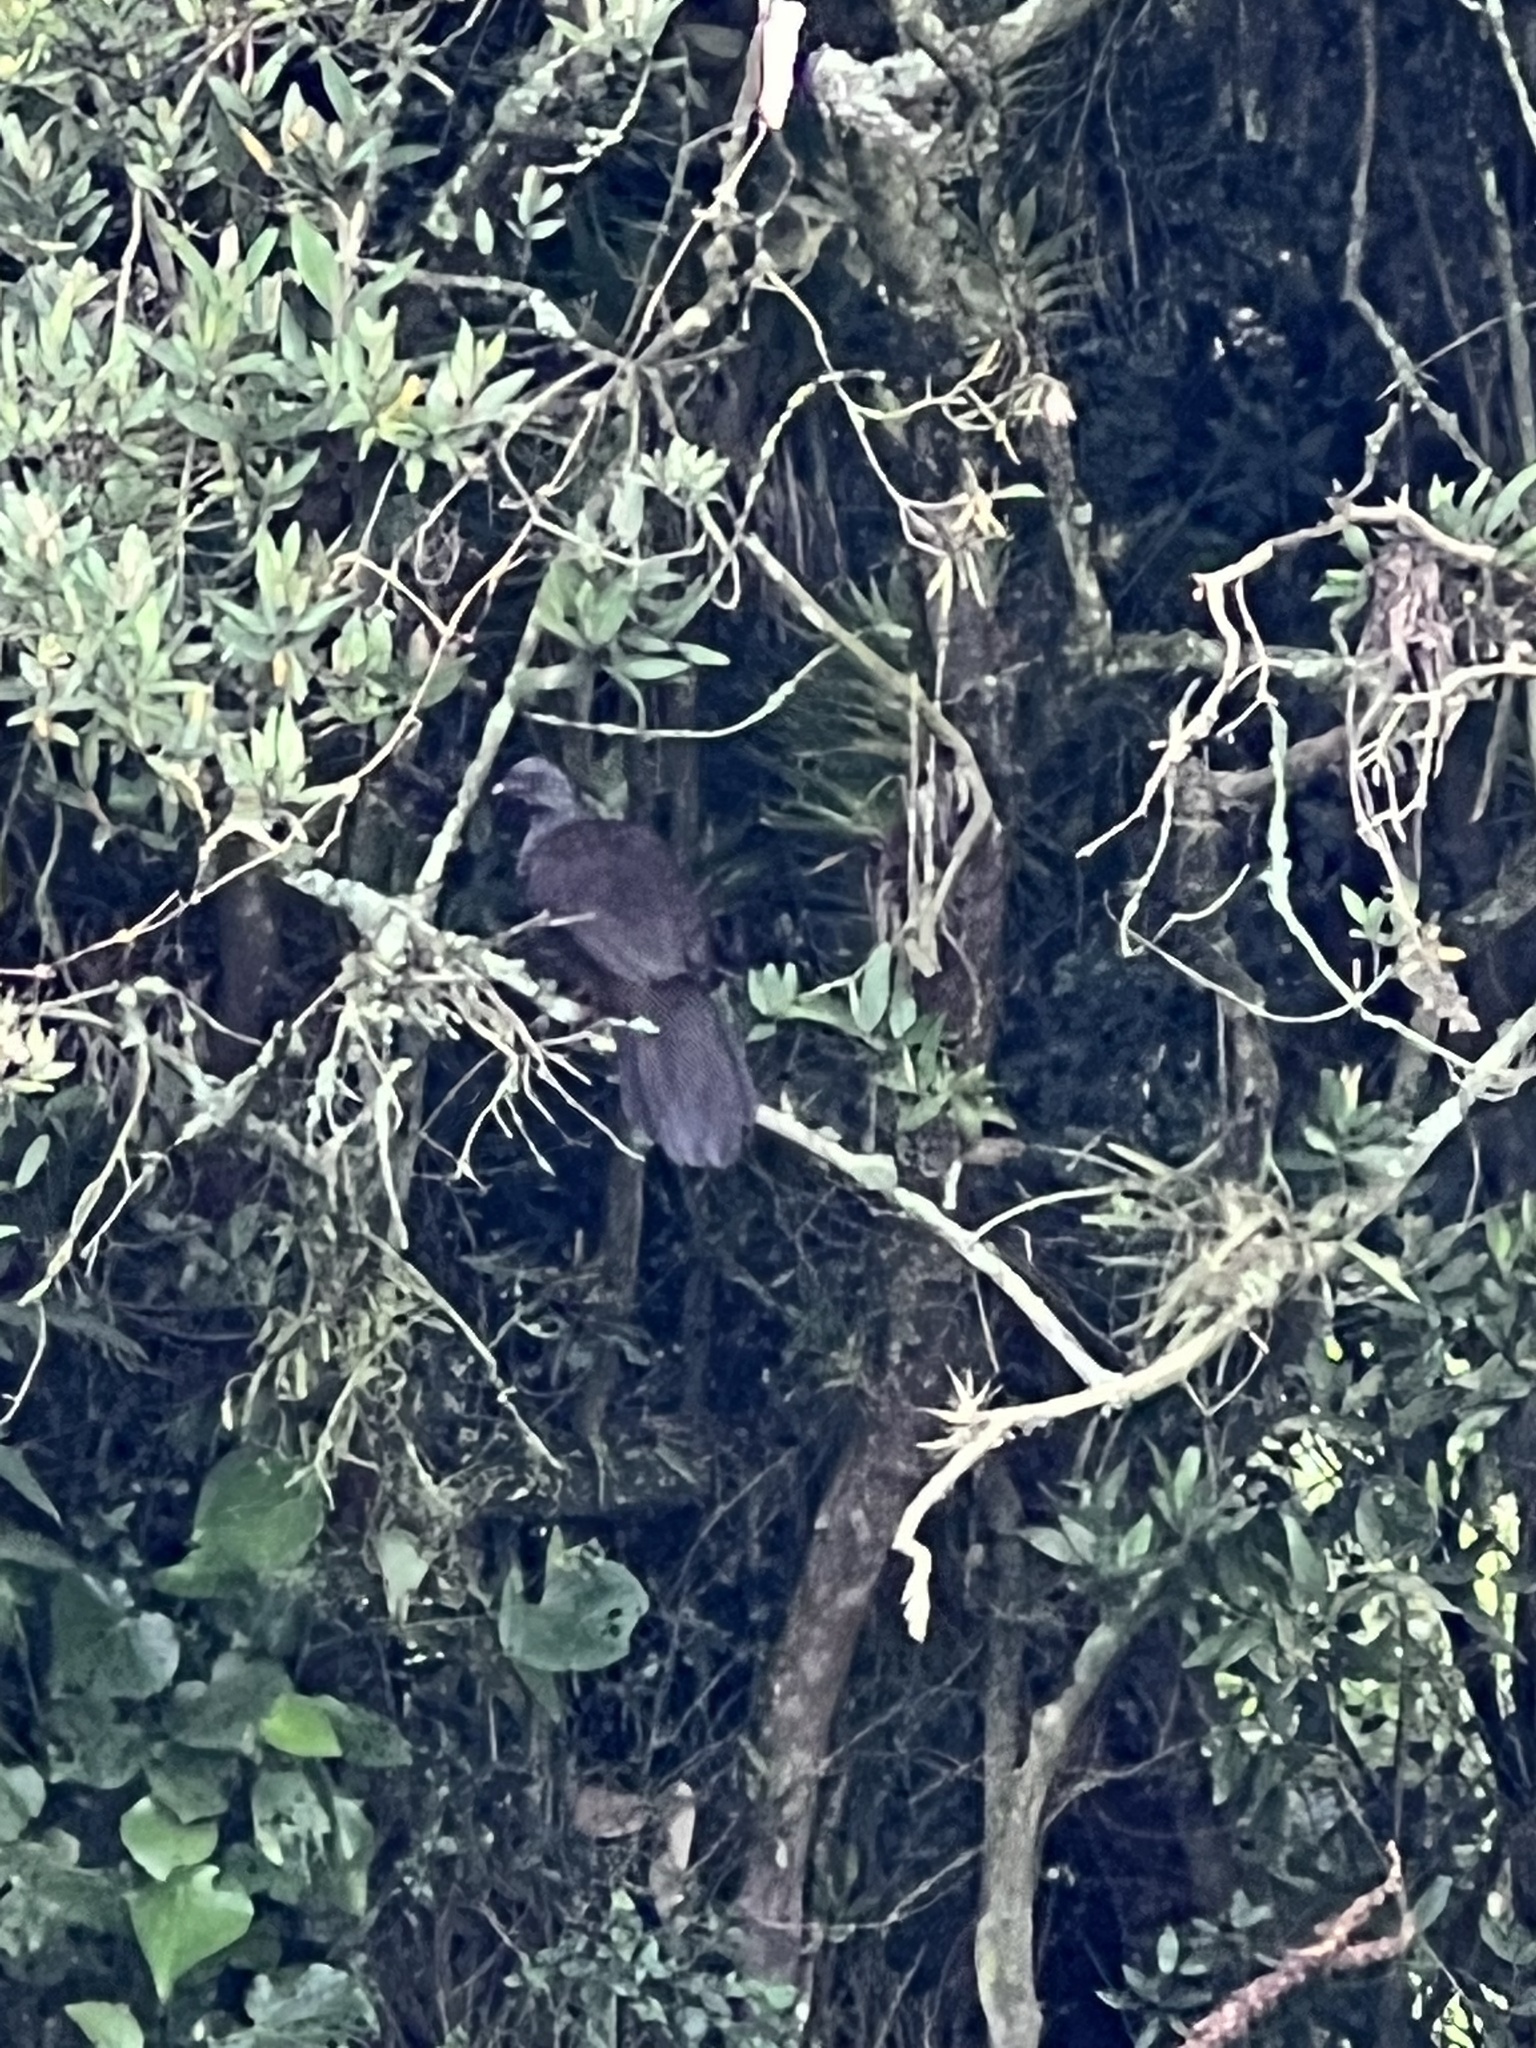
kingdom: Animalia
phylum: Chordata
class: Aves
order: Galliformes
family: Cracidae
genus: Penelope
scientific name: Penelope montagnii
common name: Andean guan
